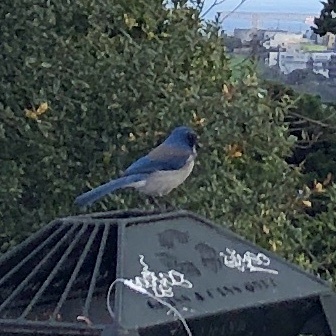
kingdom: Animalia
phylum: Chordata
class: Aves
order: Passeriformes
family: Corvidae
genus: Aphelocoma
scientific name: Aphelocoma californica
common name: California scrub-jay
